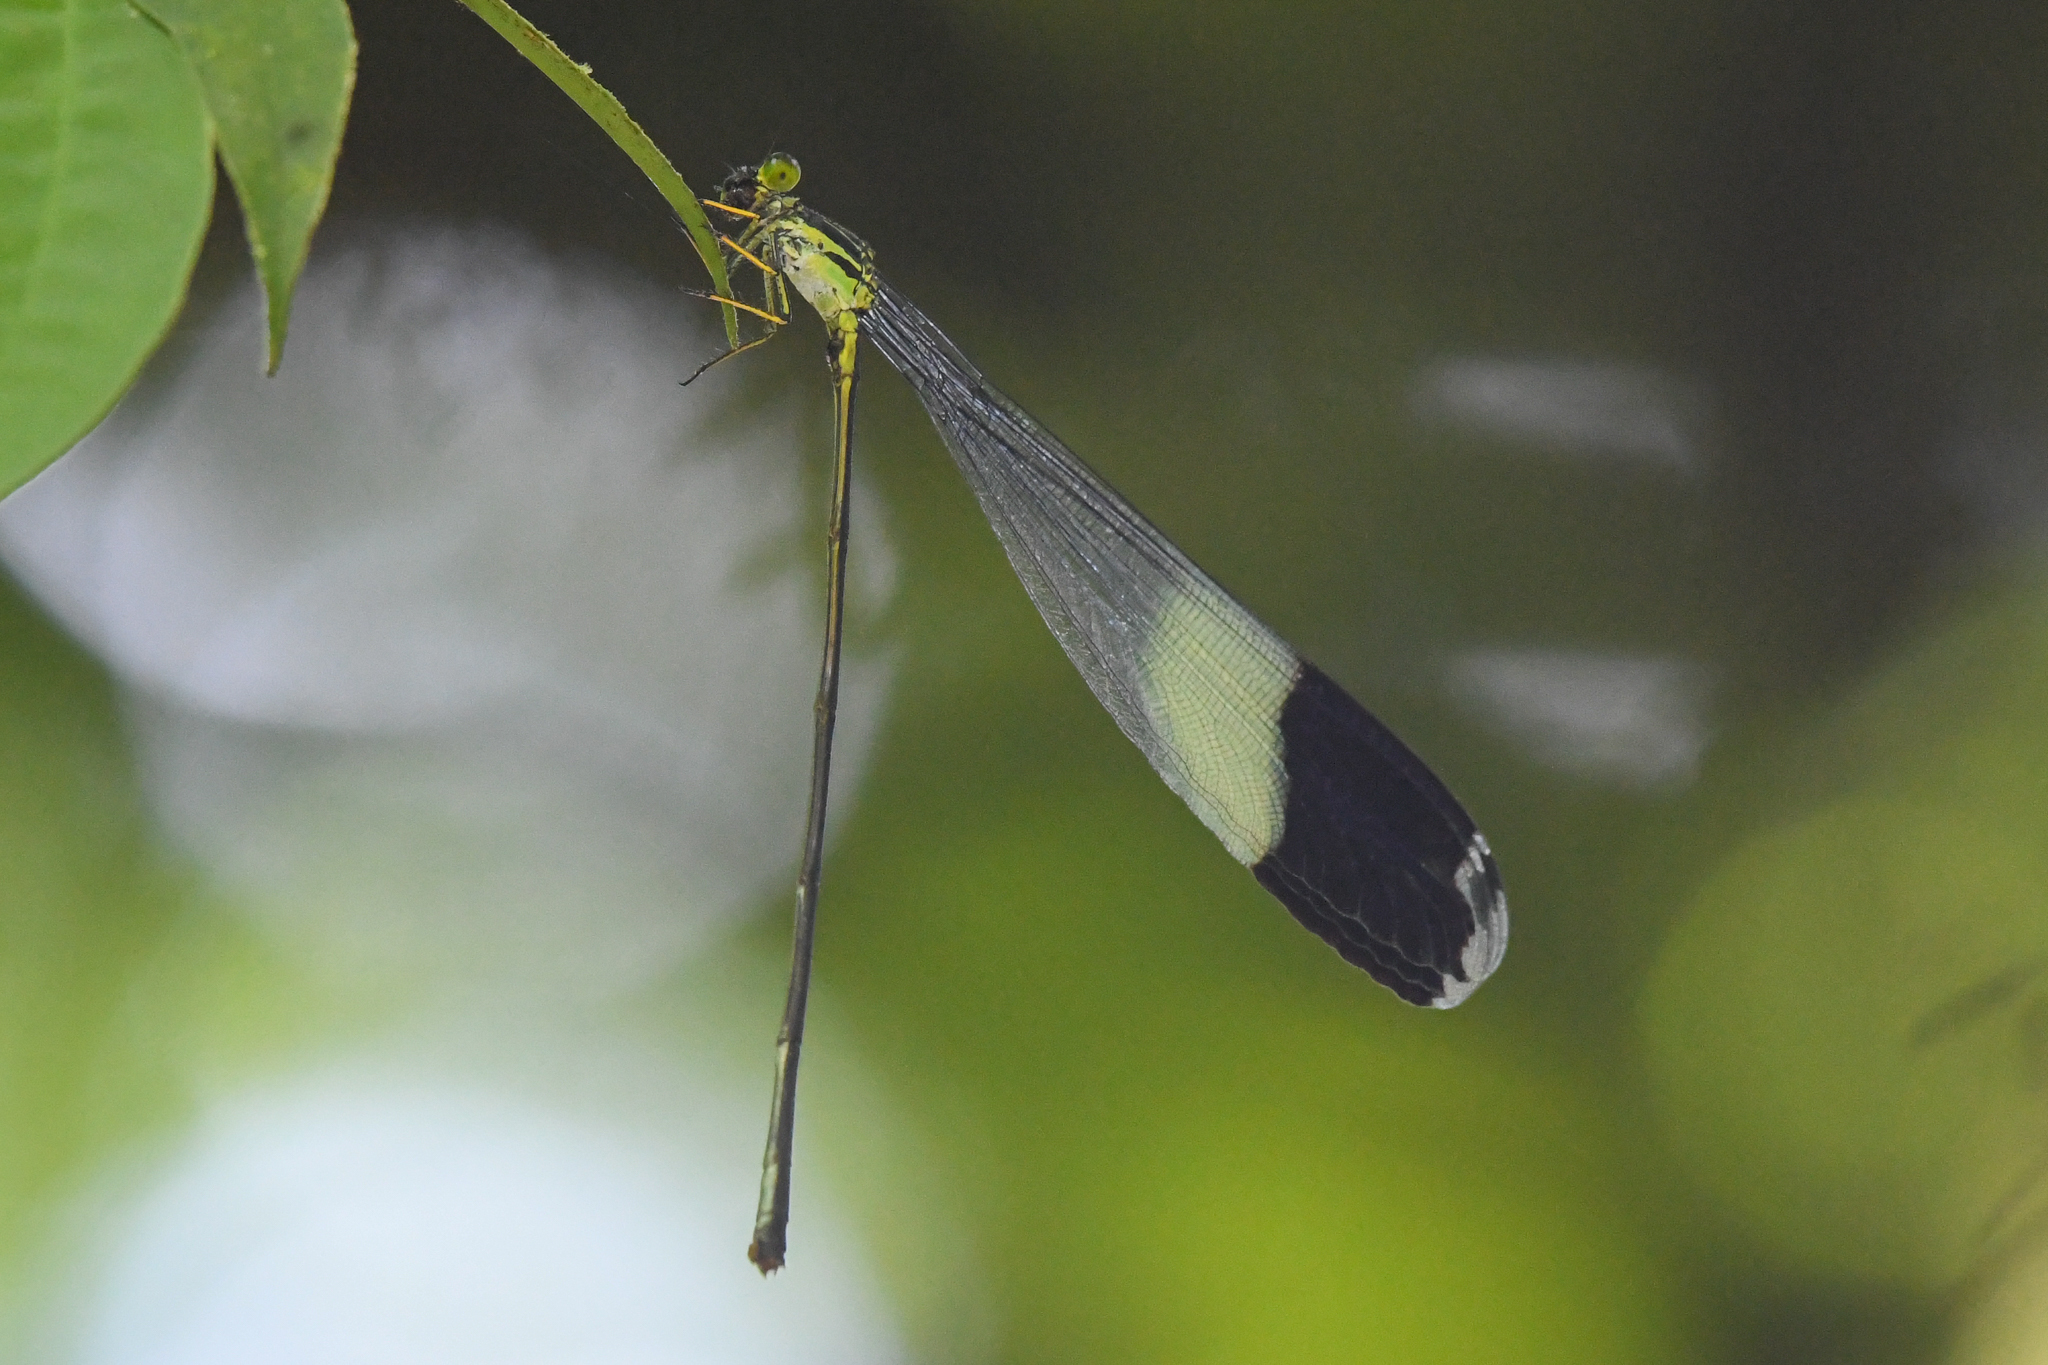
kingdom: Animalia
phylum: Arthropoda
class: Insecta
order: Odonata
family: Coenagrionidae
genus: Megaloprepus
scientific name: Megaloprepus caerulatus
